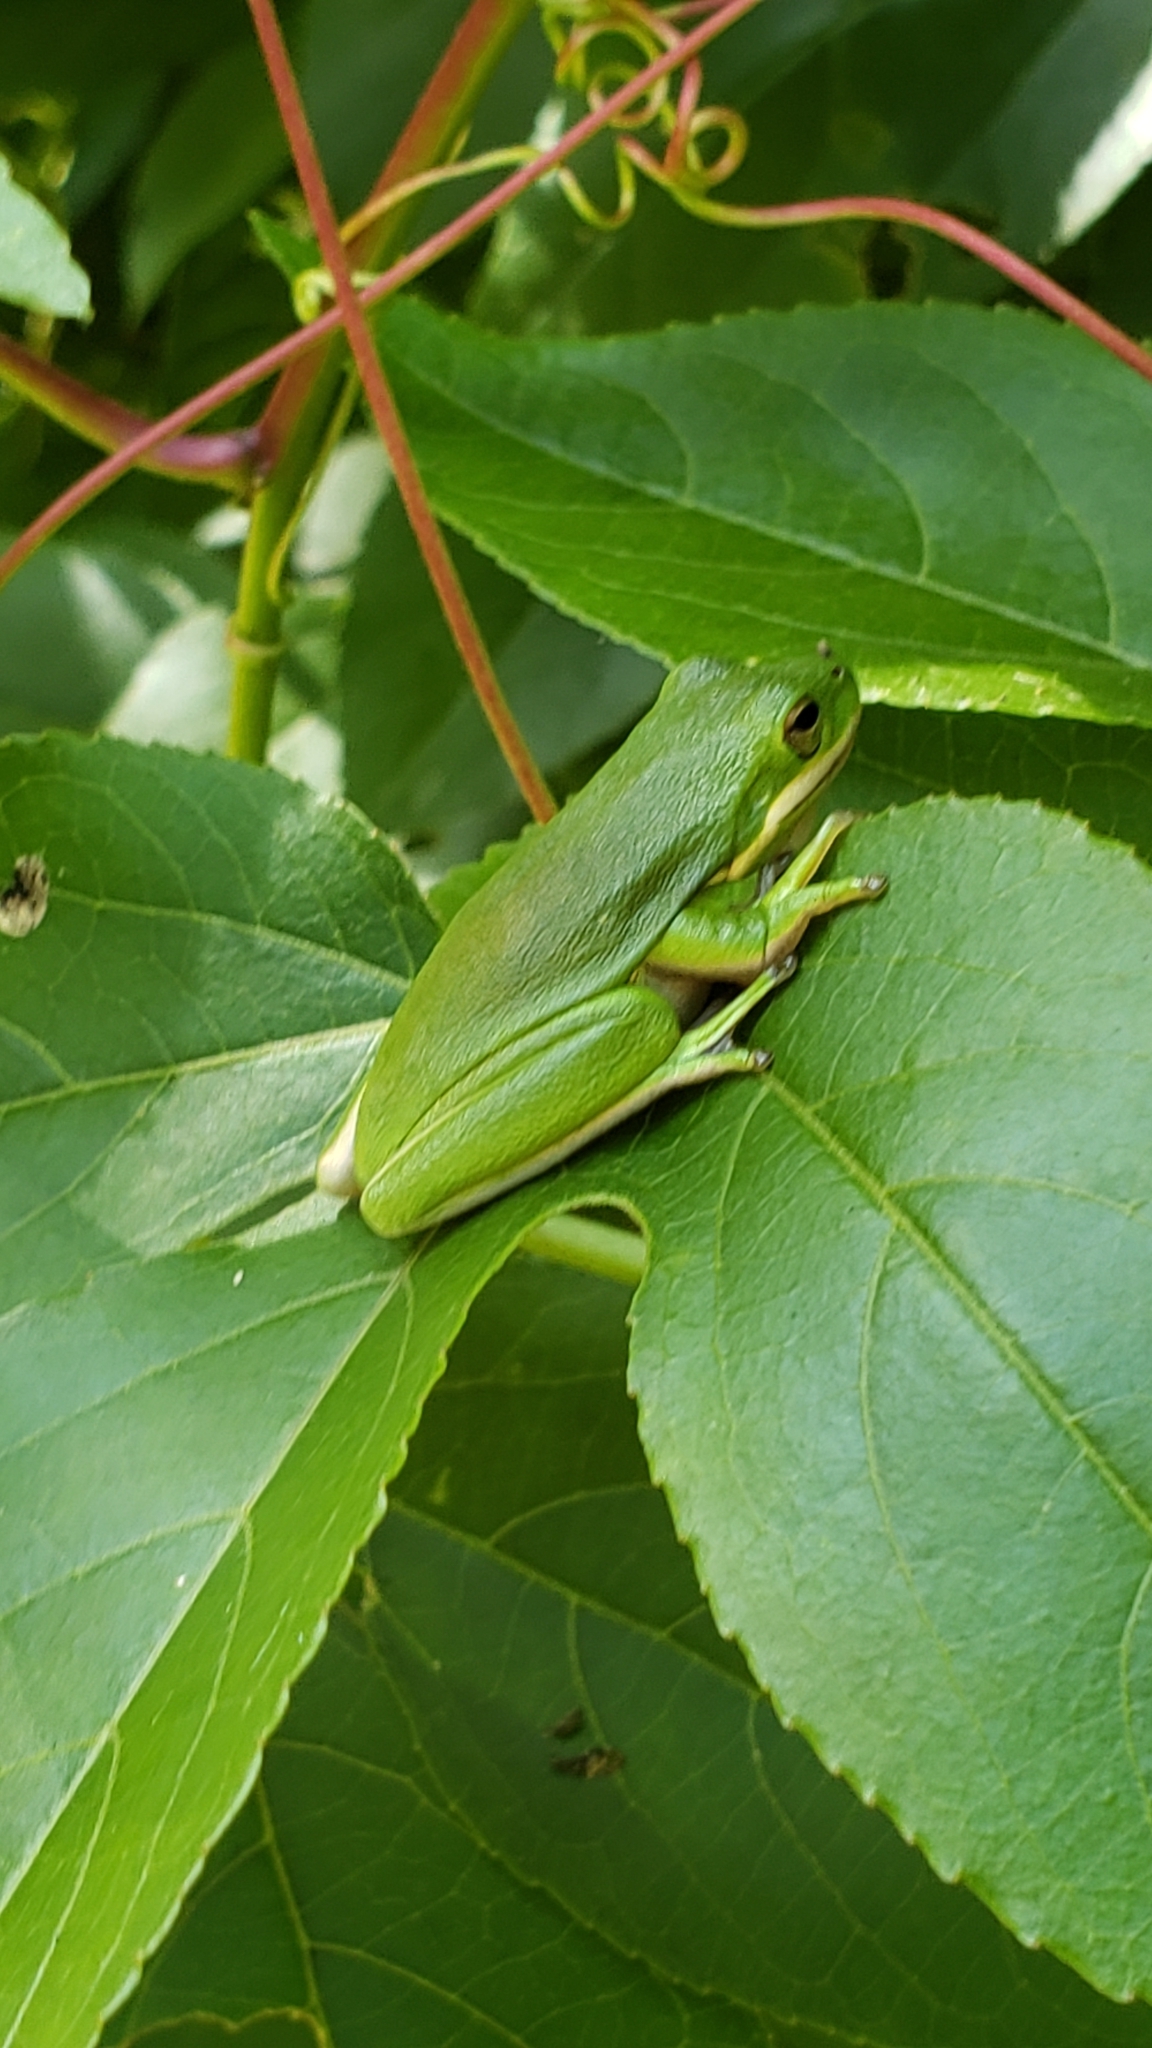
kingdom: Animalia
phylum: Chordata
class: Amphibia
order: Anura
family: Hylidae
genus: Dryophytes
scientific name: Dryophytes cinereus
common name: Green treefrog
